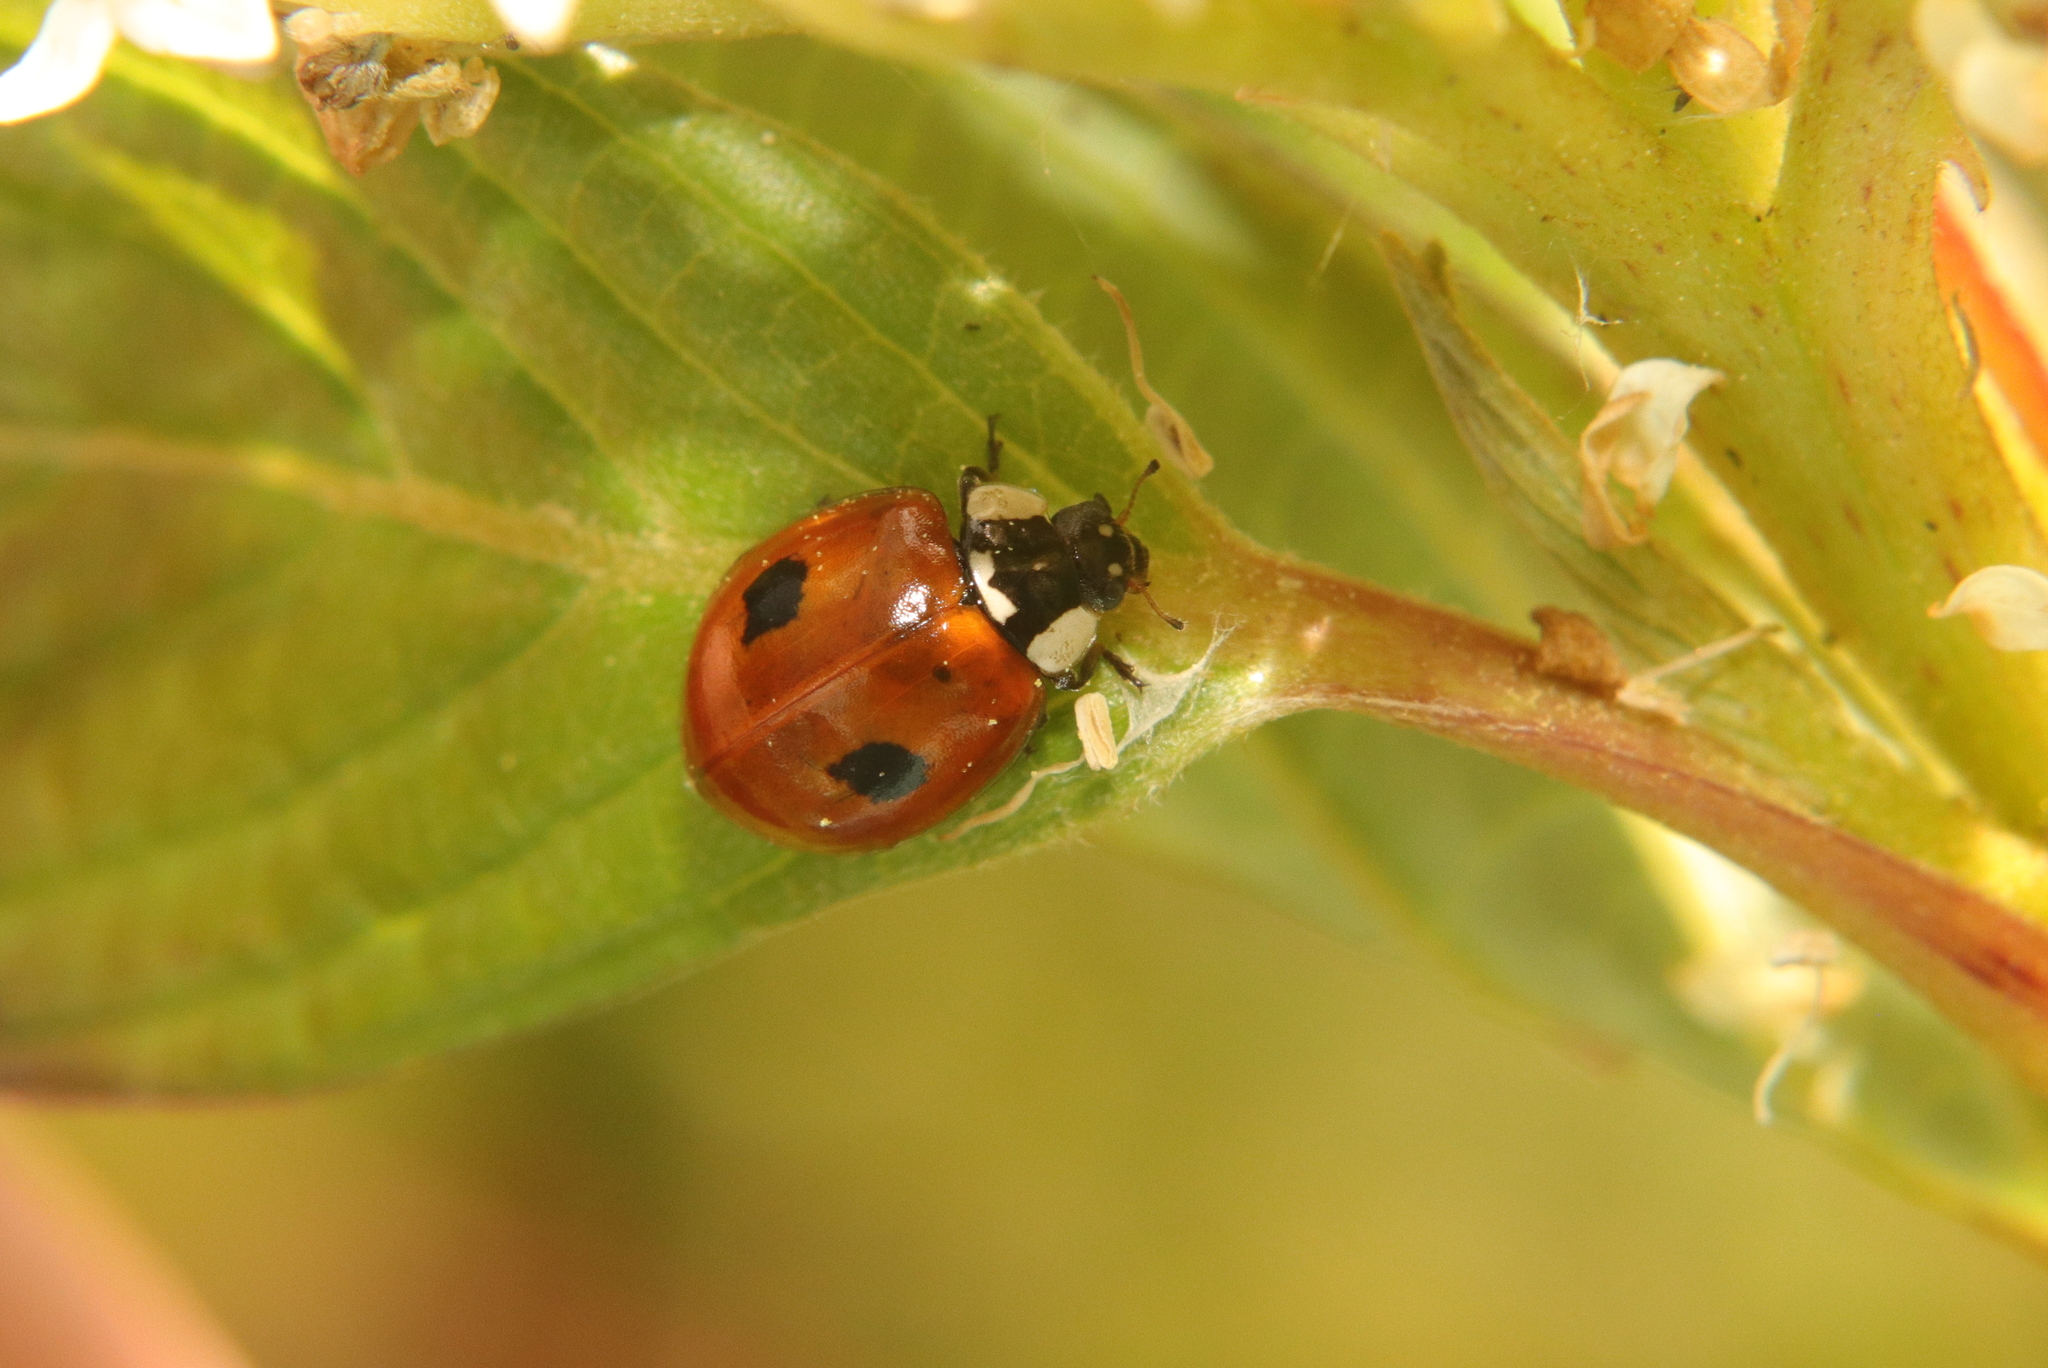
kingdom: Animalia
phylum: Arthropoda
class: Insecta
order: Coleoptera
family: Coccinellidae
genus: Adalia
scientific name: Adalia bipunctata
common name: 2-spot ladybird
